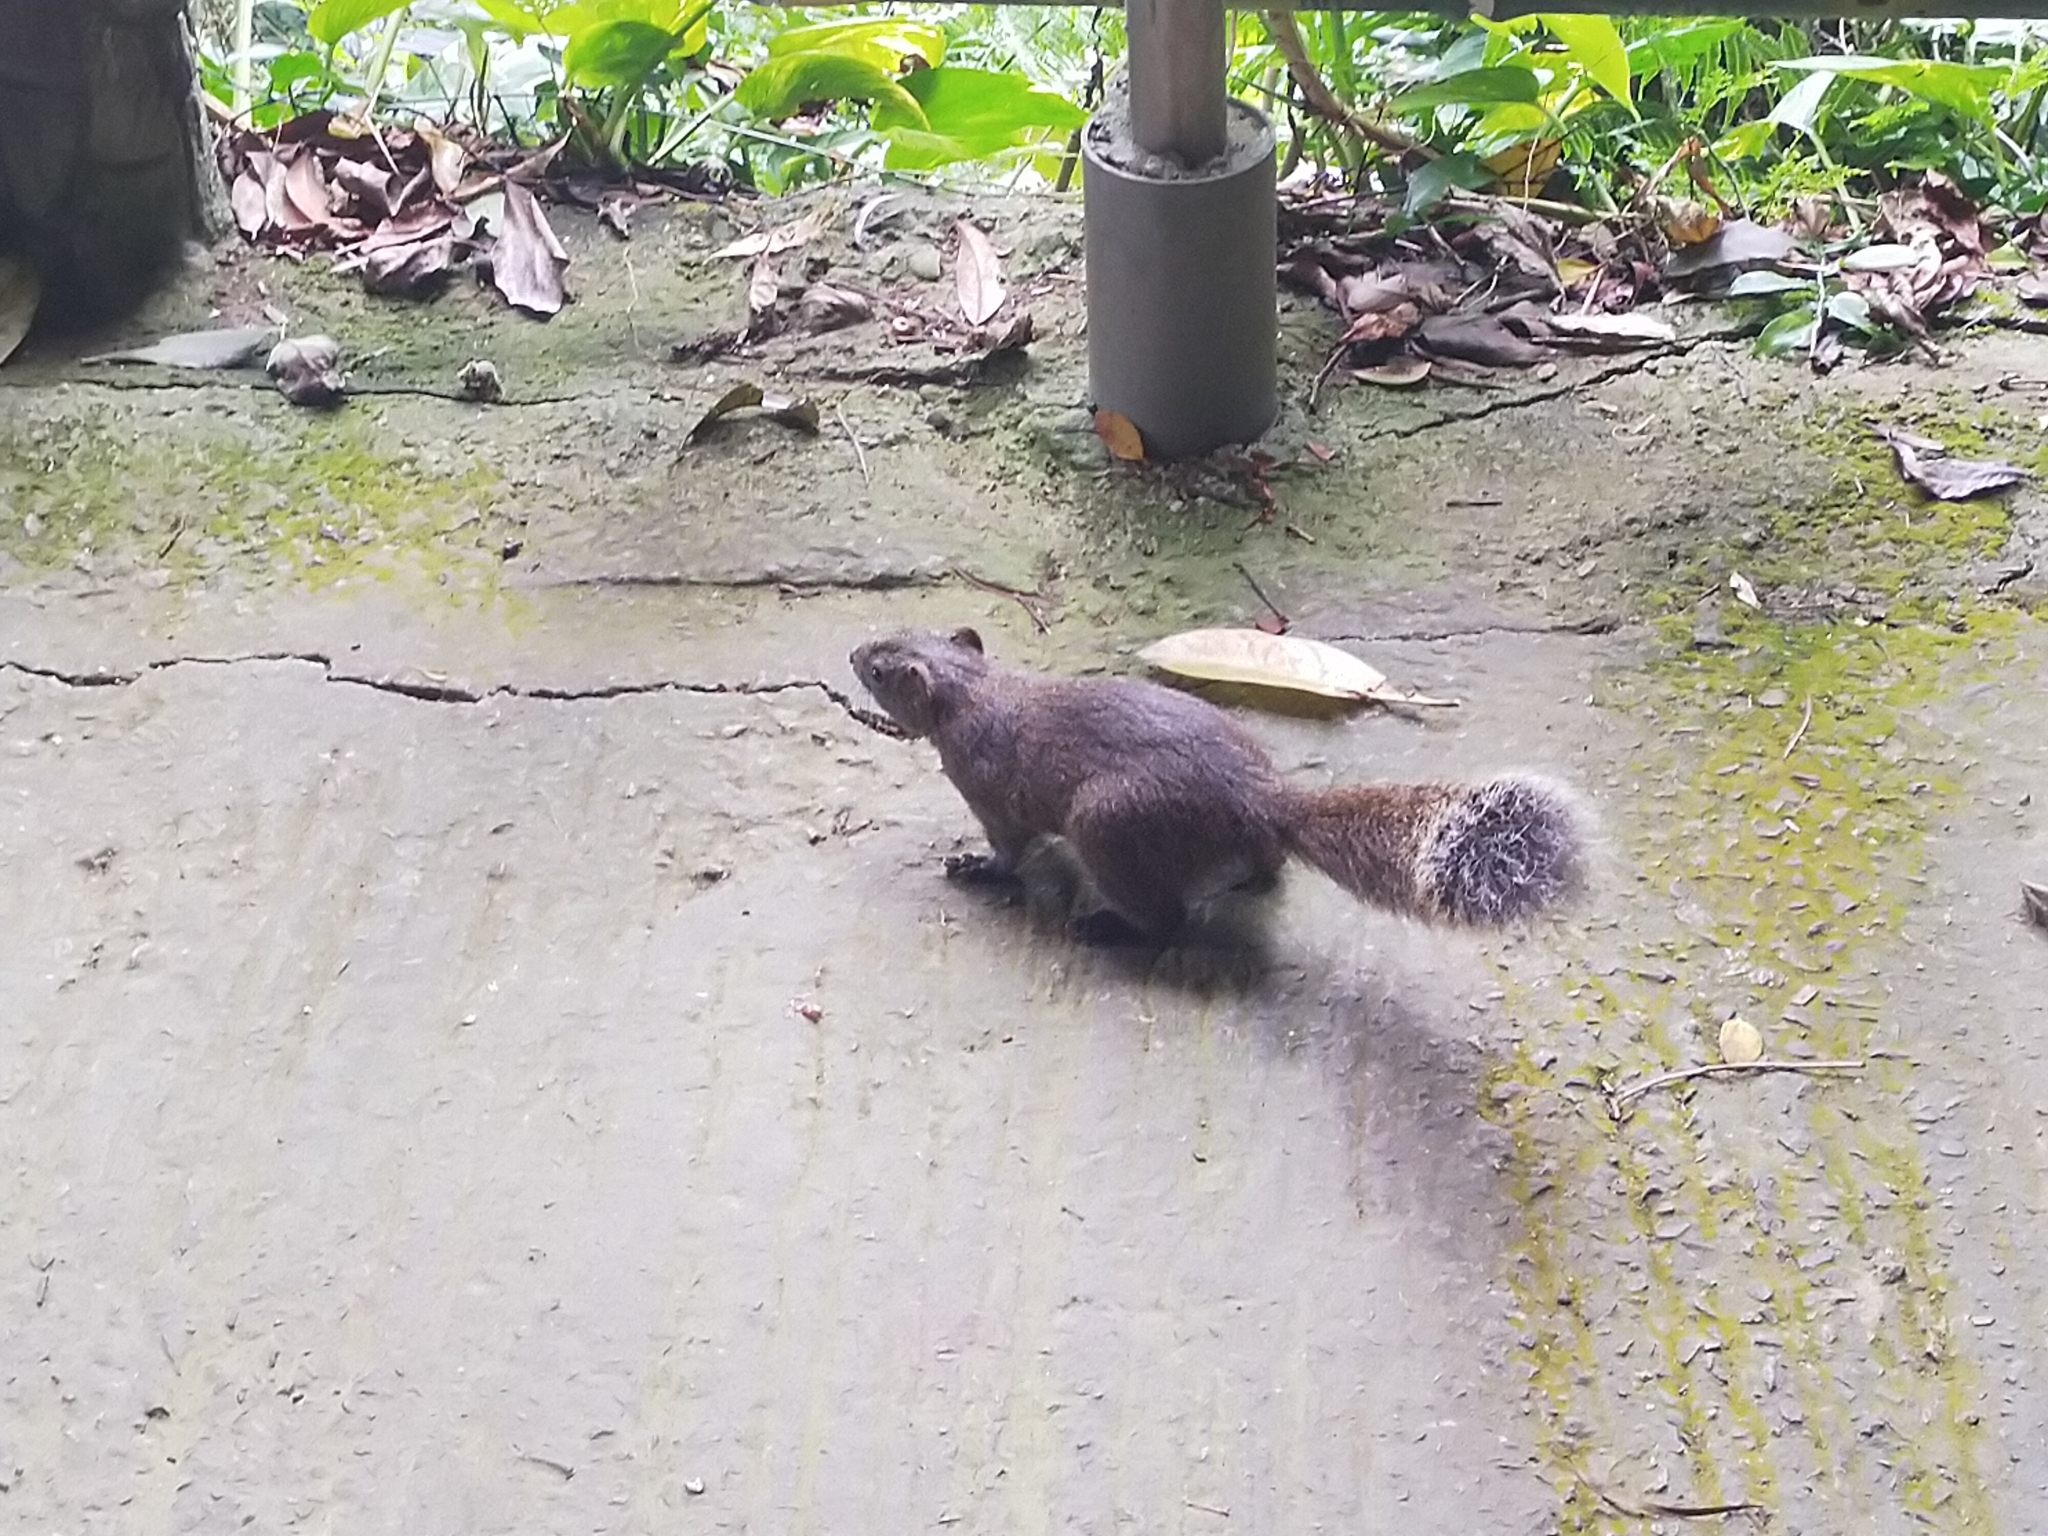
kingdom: Animalia
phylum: Chordata
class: Mammalia
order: Rodentia
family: Sciuridae
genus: Callosciurus
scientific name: Callosciurus erythraeus
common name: Pallas's squirrel
